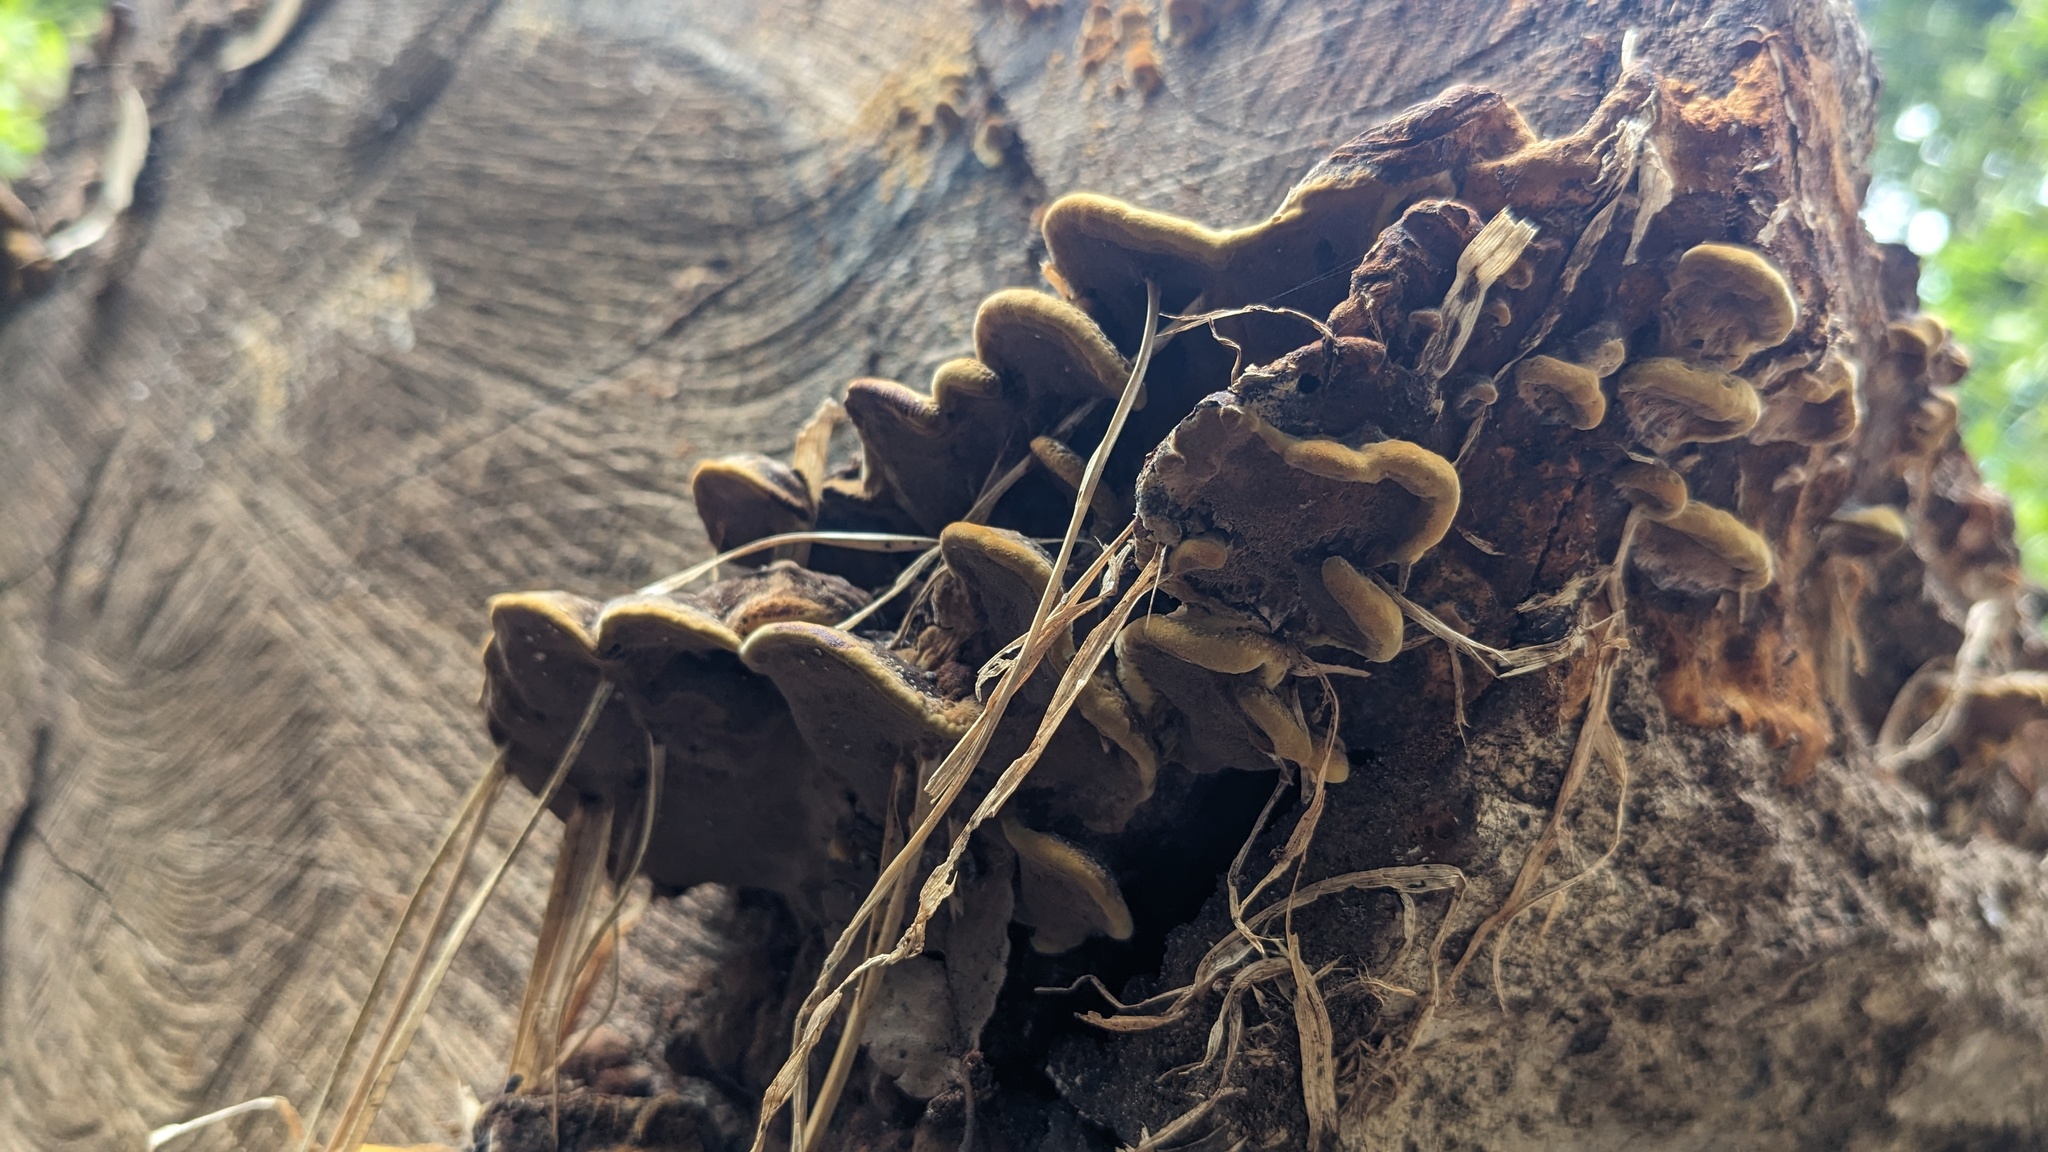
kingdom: Fungi
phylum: Basidiomycota
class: Agaricomycetes
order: Hymenochaetales
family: Hymenochaetaceae
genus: Phellinus
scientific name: Phellinus gilvus
